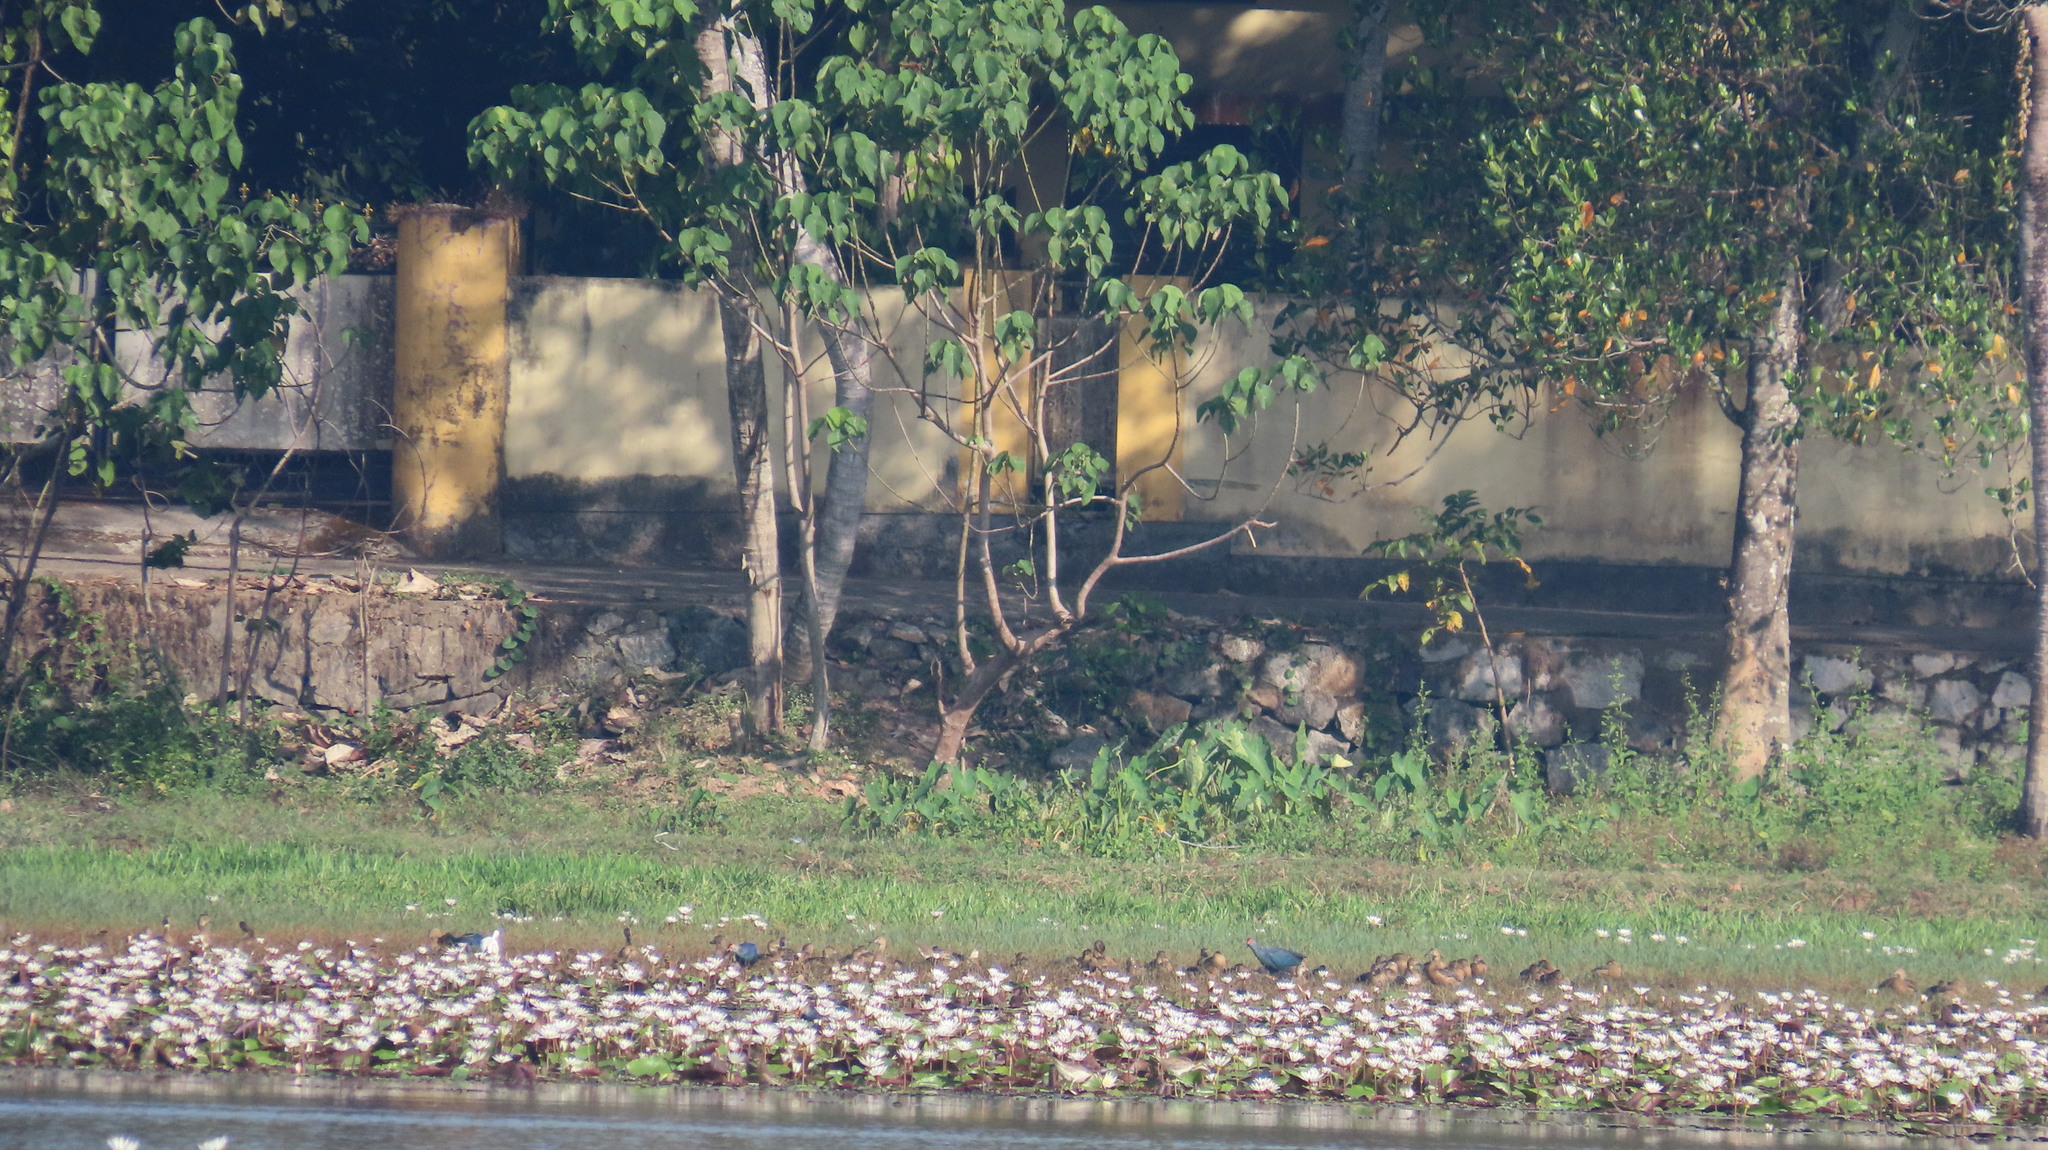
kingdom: Animalia
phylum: Chordata
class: Aves
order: Anseriformes
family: Anatidae
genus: Dendrocygna
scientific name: Dendrocygna javanica
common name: Lesser whistling-duck
